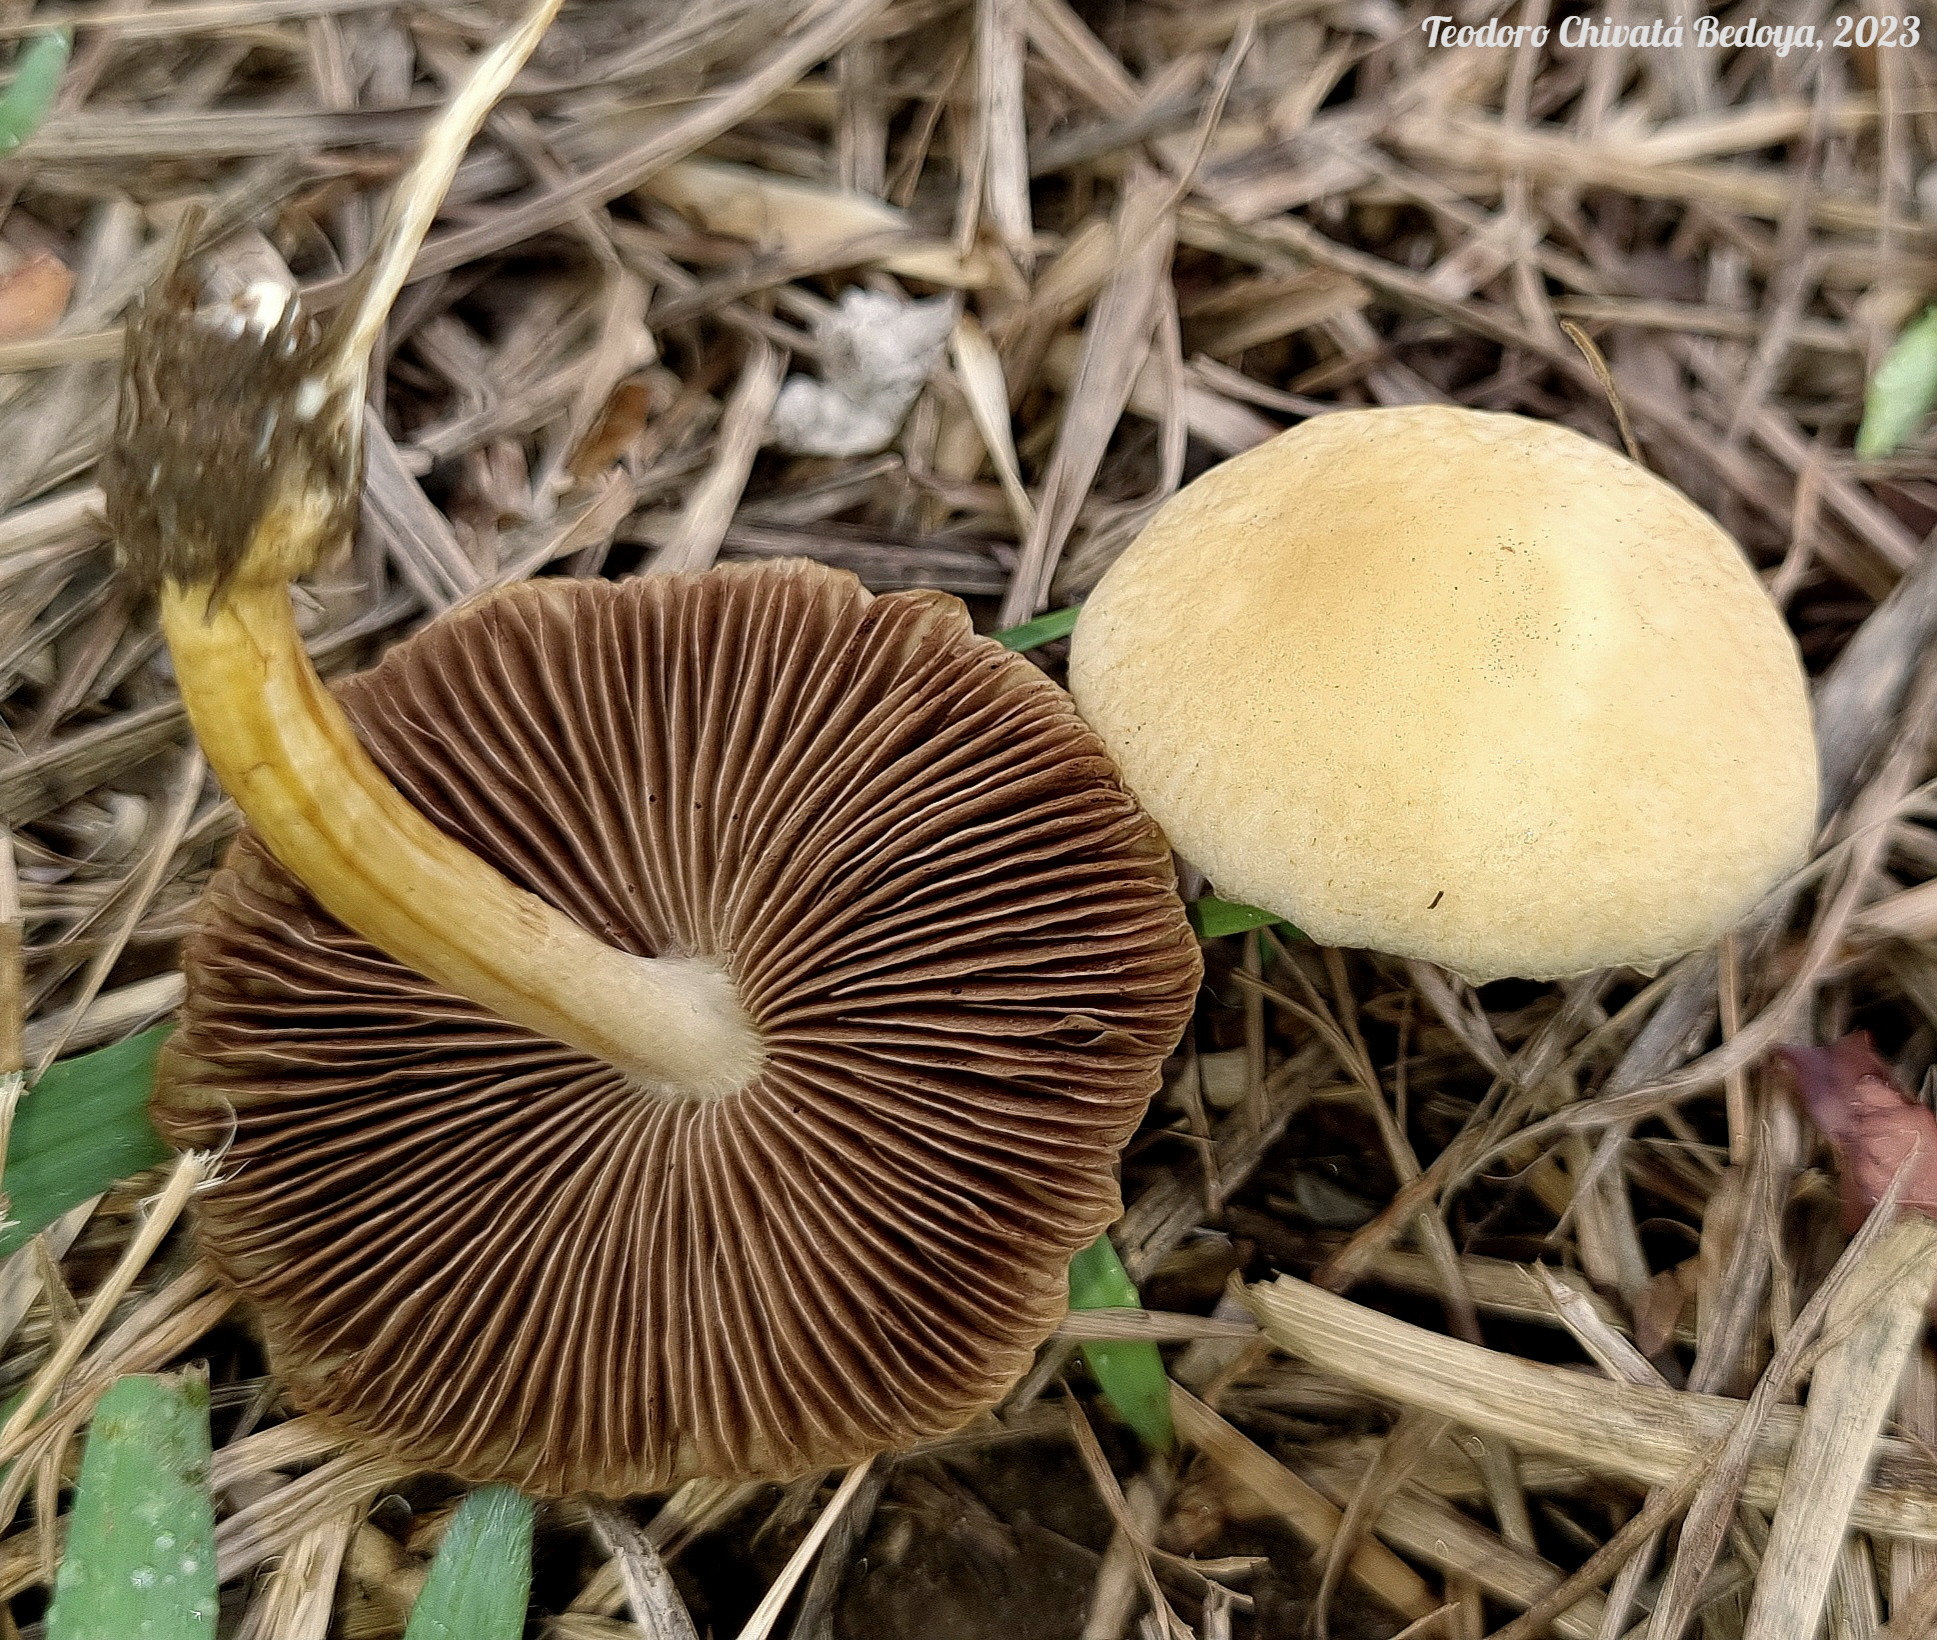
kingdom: Fungi
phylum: Basidiomycota
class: Agaricomycetes
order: Agaricales
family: Strophariaceae
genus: Agrocybe
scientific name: Agrocybe retigera
